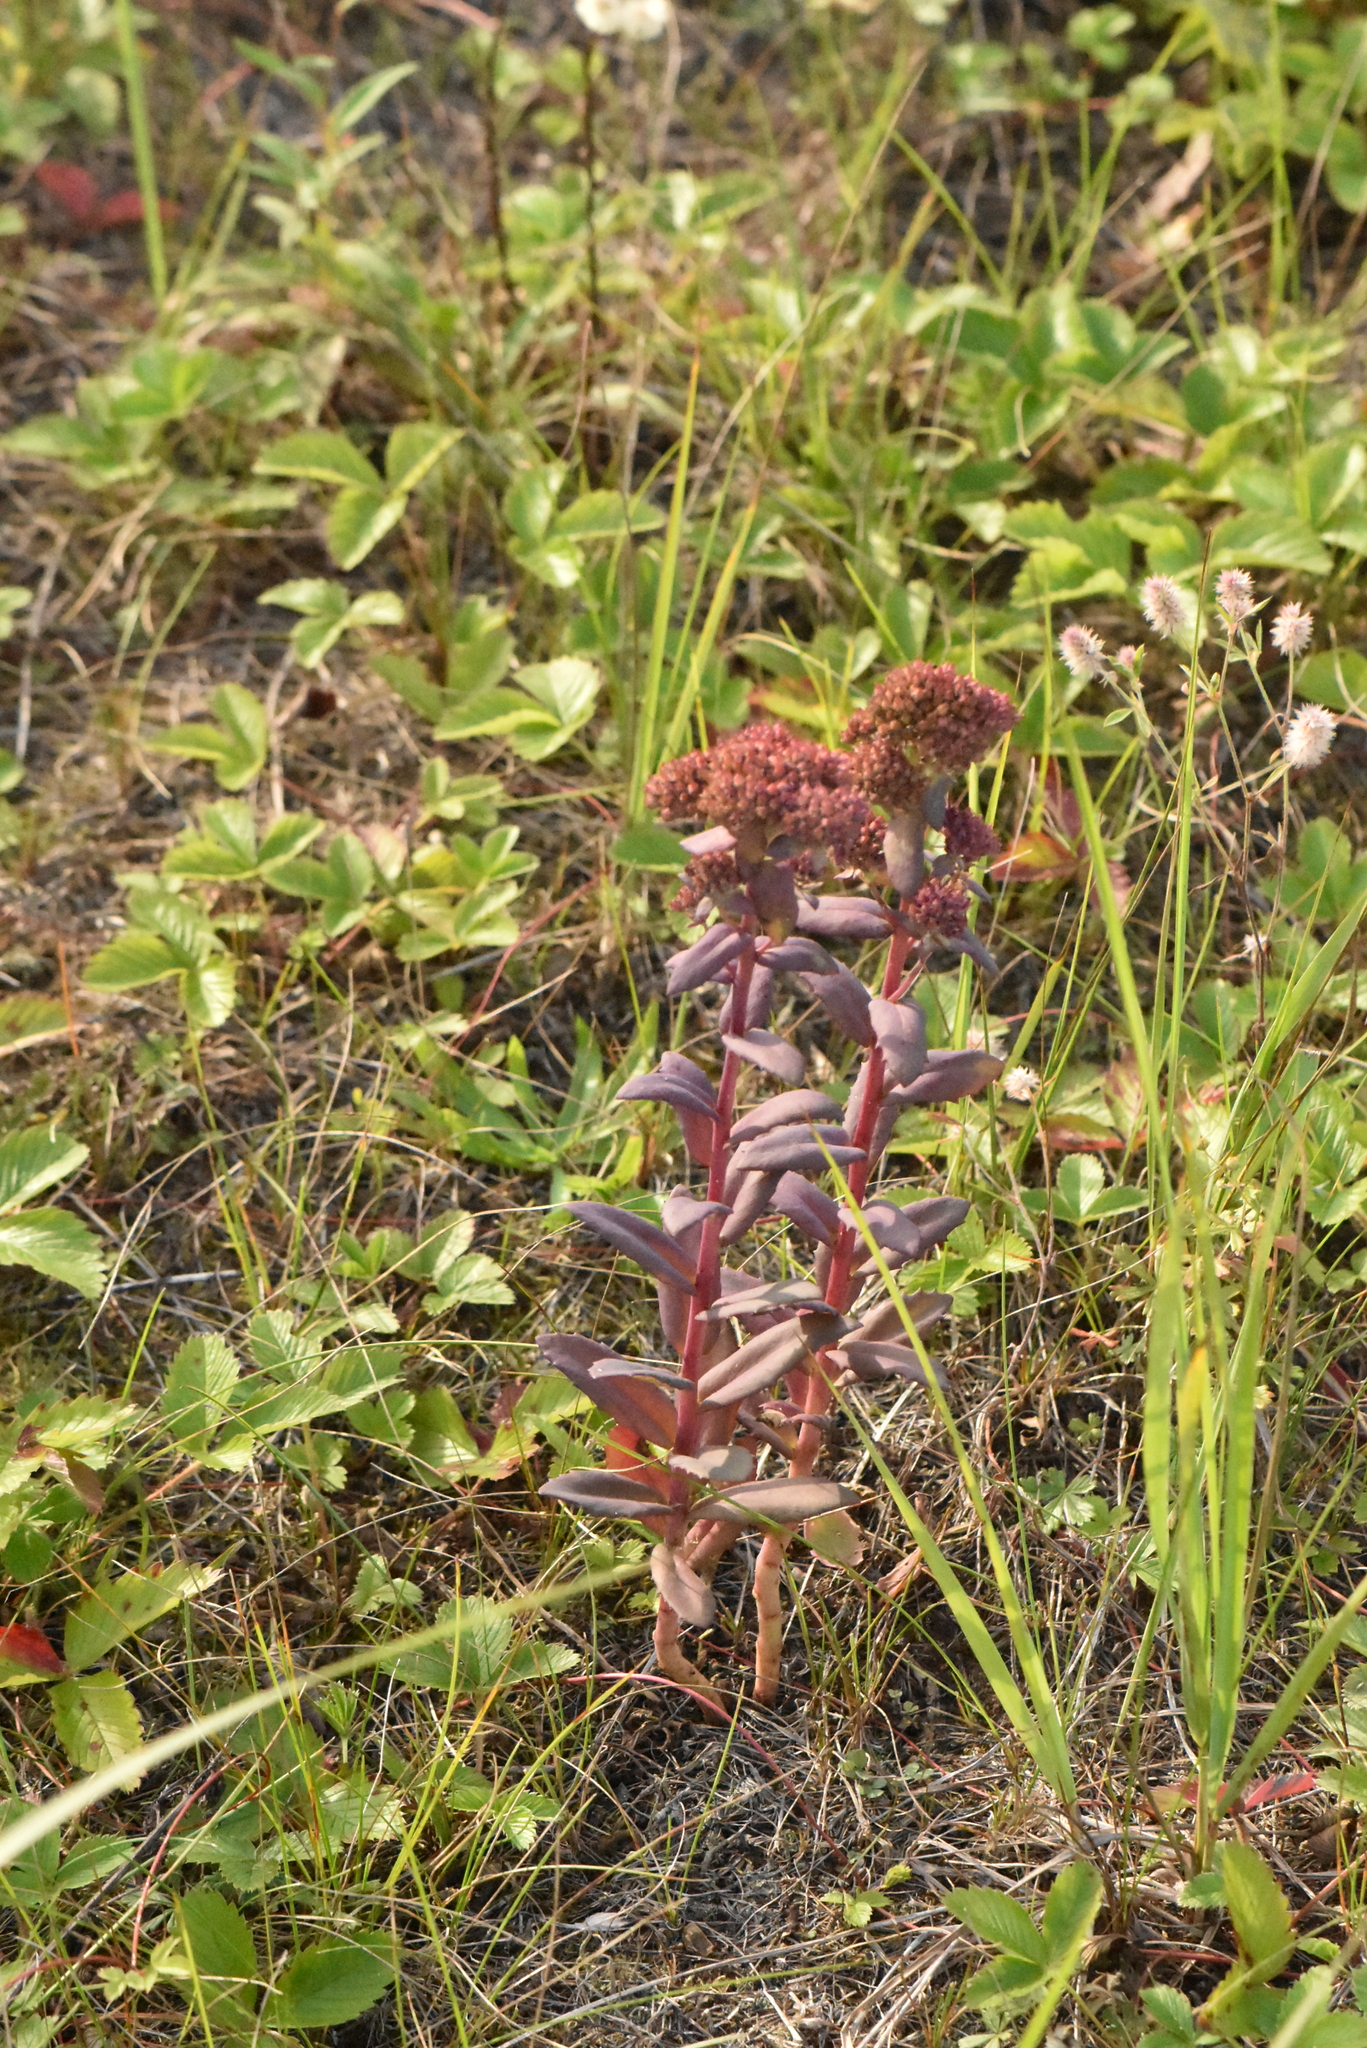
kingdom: Plantae
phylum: Tracheophyta
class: Magnoliopsida
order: Saxifragales
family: Crassulaceae
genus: Hylotelephium
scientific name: Hylotelephium telephium
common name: Live-forever
